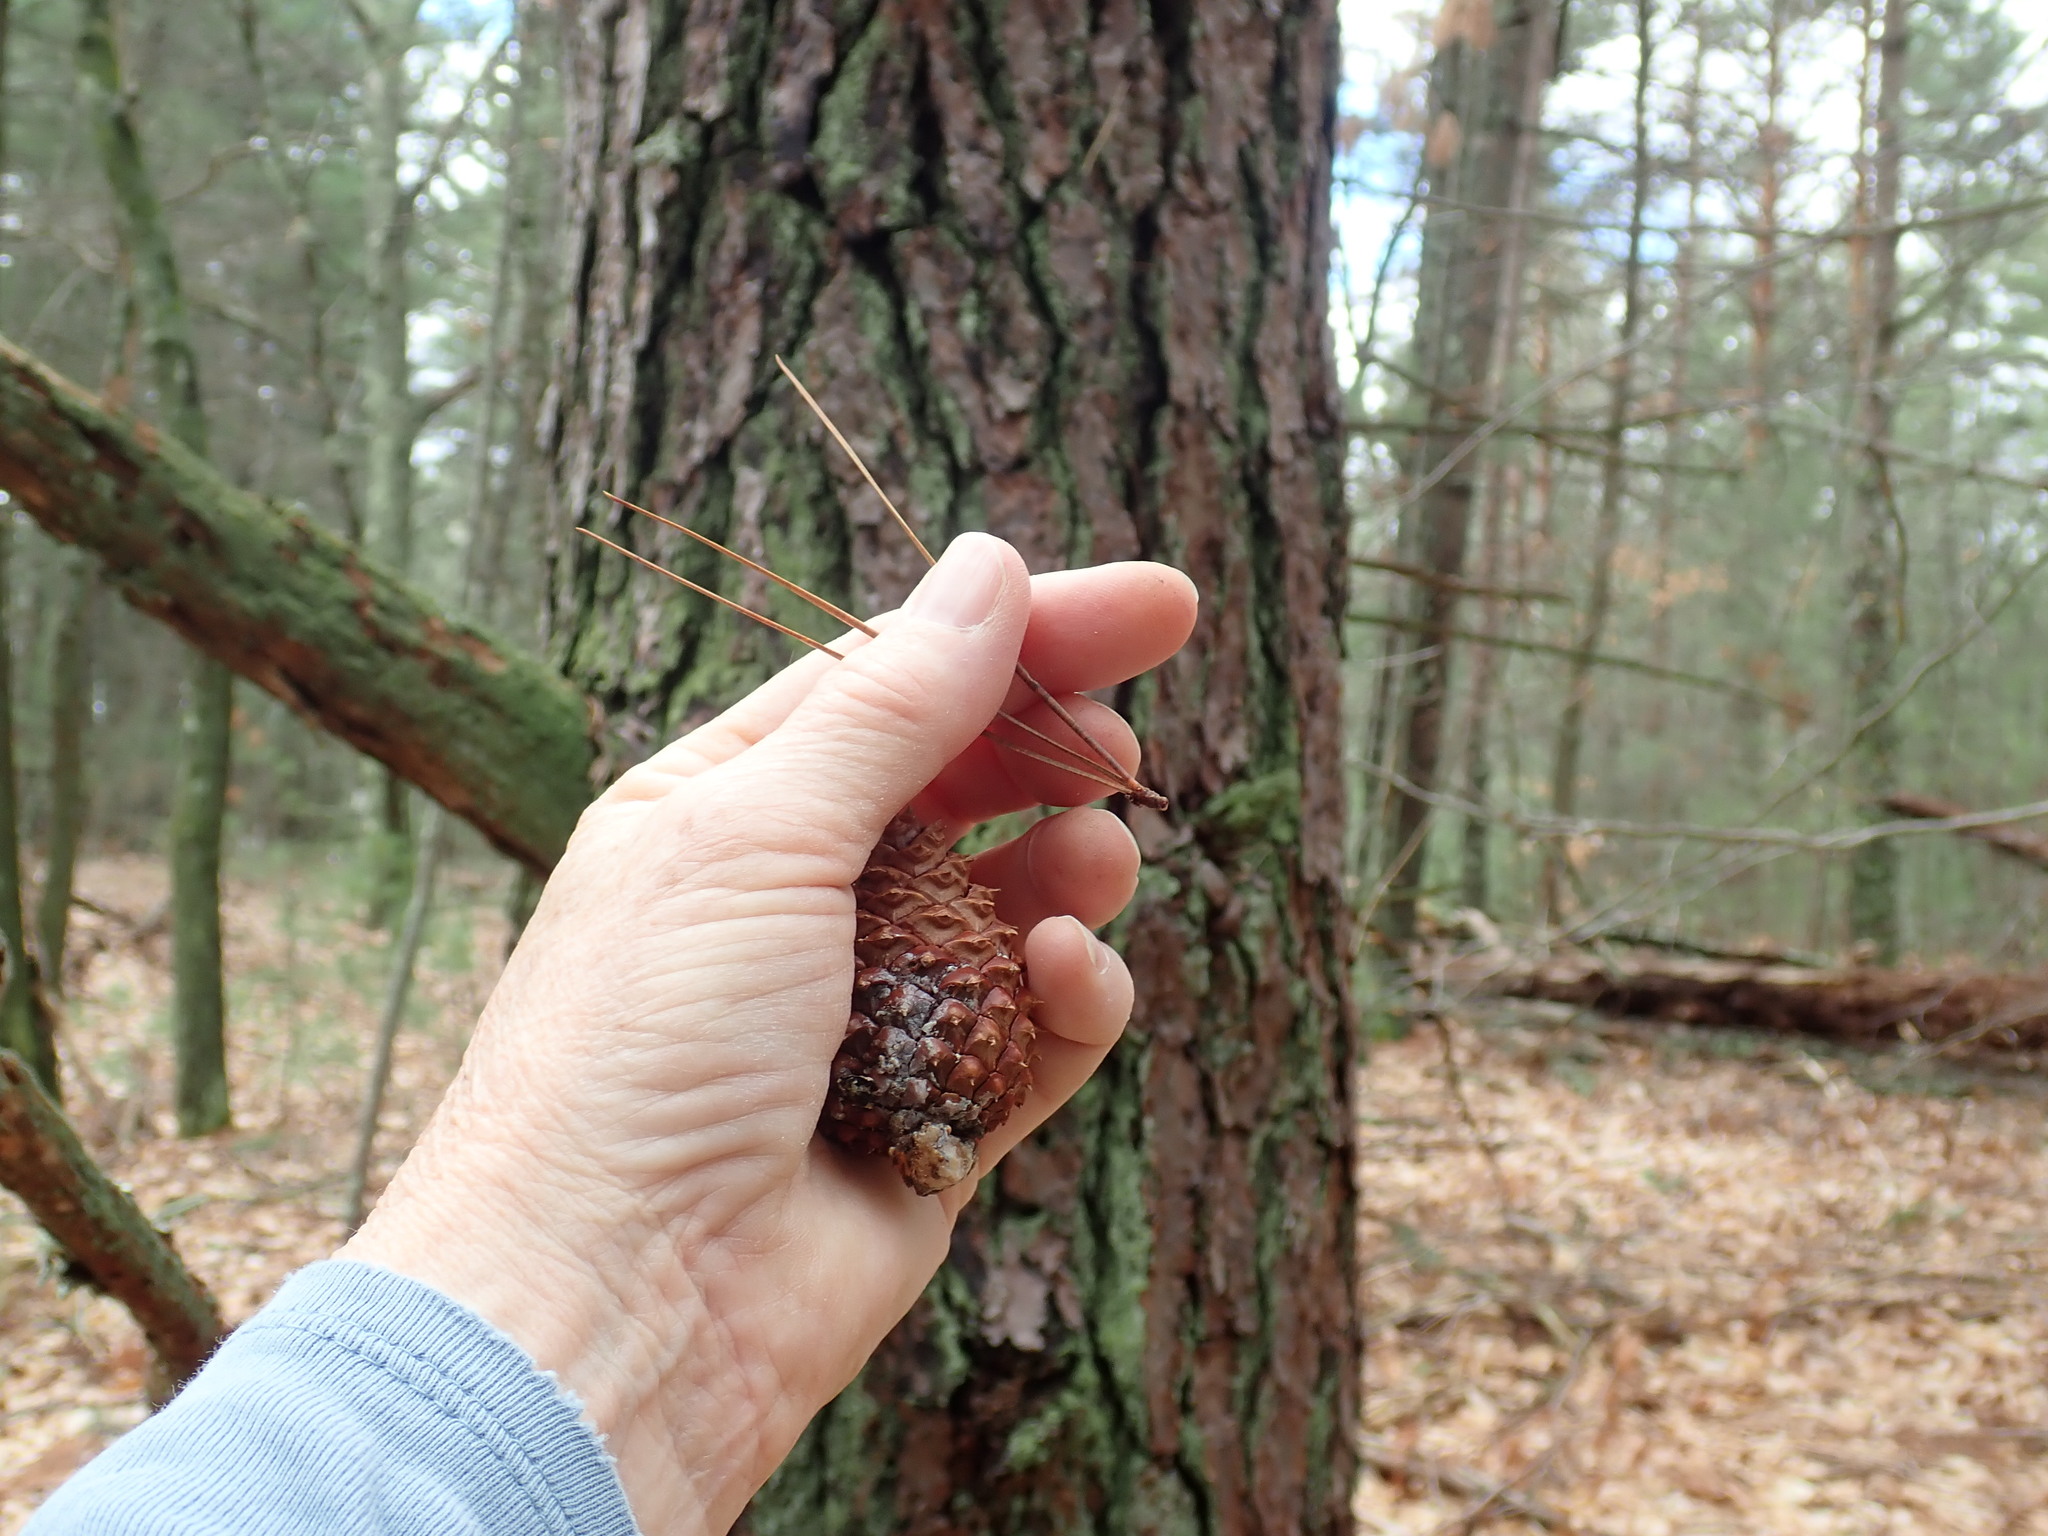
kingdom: Plantae
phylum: Tracheophyta
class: Pinopsida
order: Pinales
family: Pinaceae
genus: Pinus
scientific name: Pinus rigida
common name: Pitch pine
